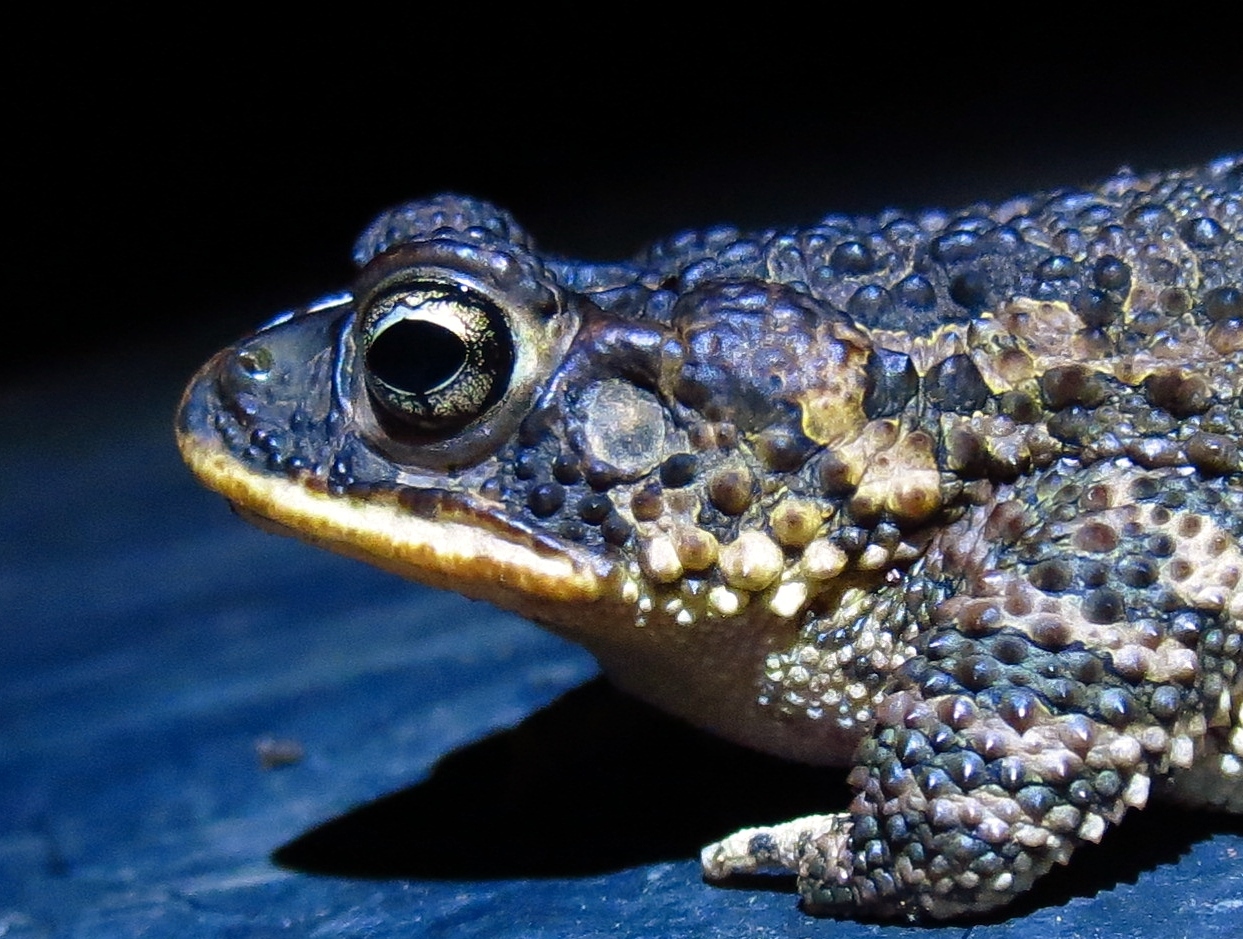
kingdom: Animalia
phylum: Chordata
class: Amphibia
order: Anura
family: Bufonidae
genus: Incilius
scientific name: Incilius coccifer
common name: Southern round-gland toad
